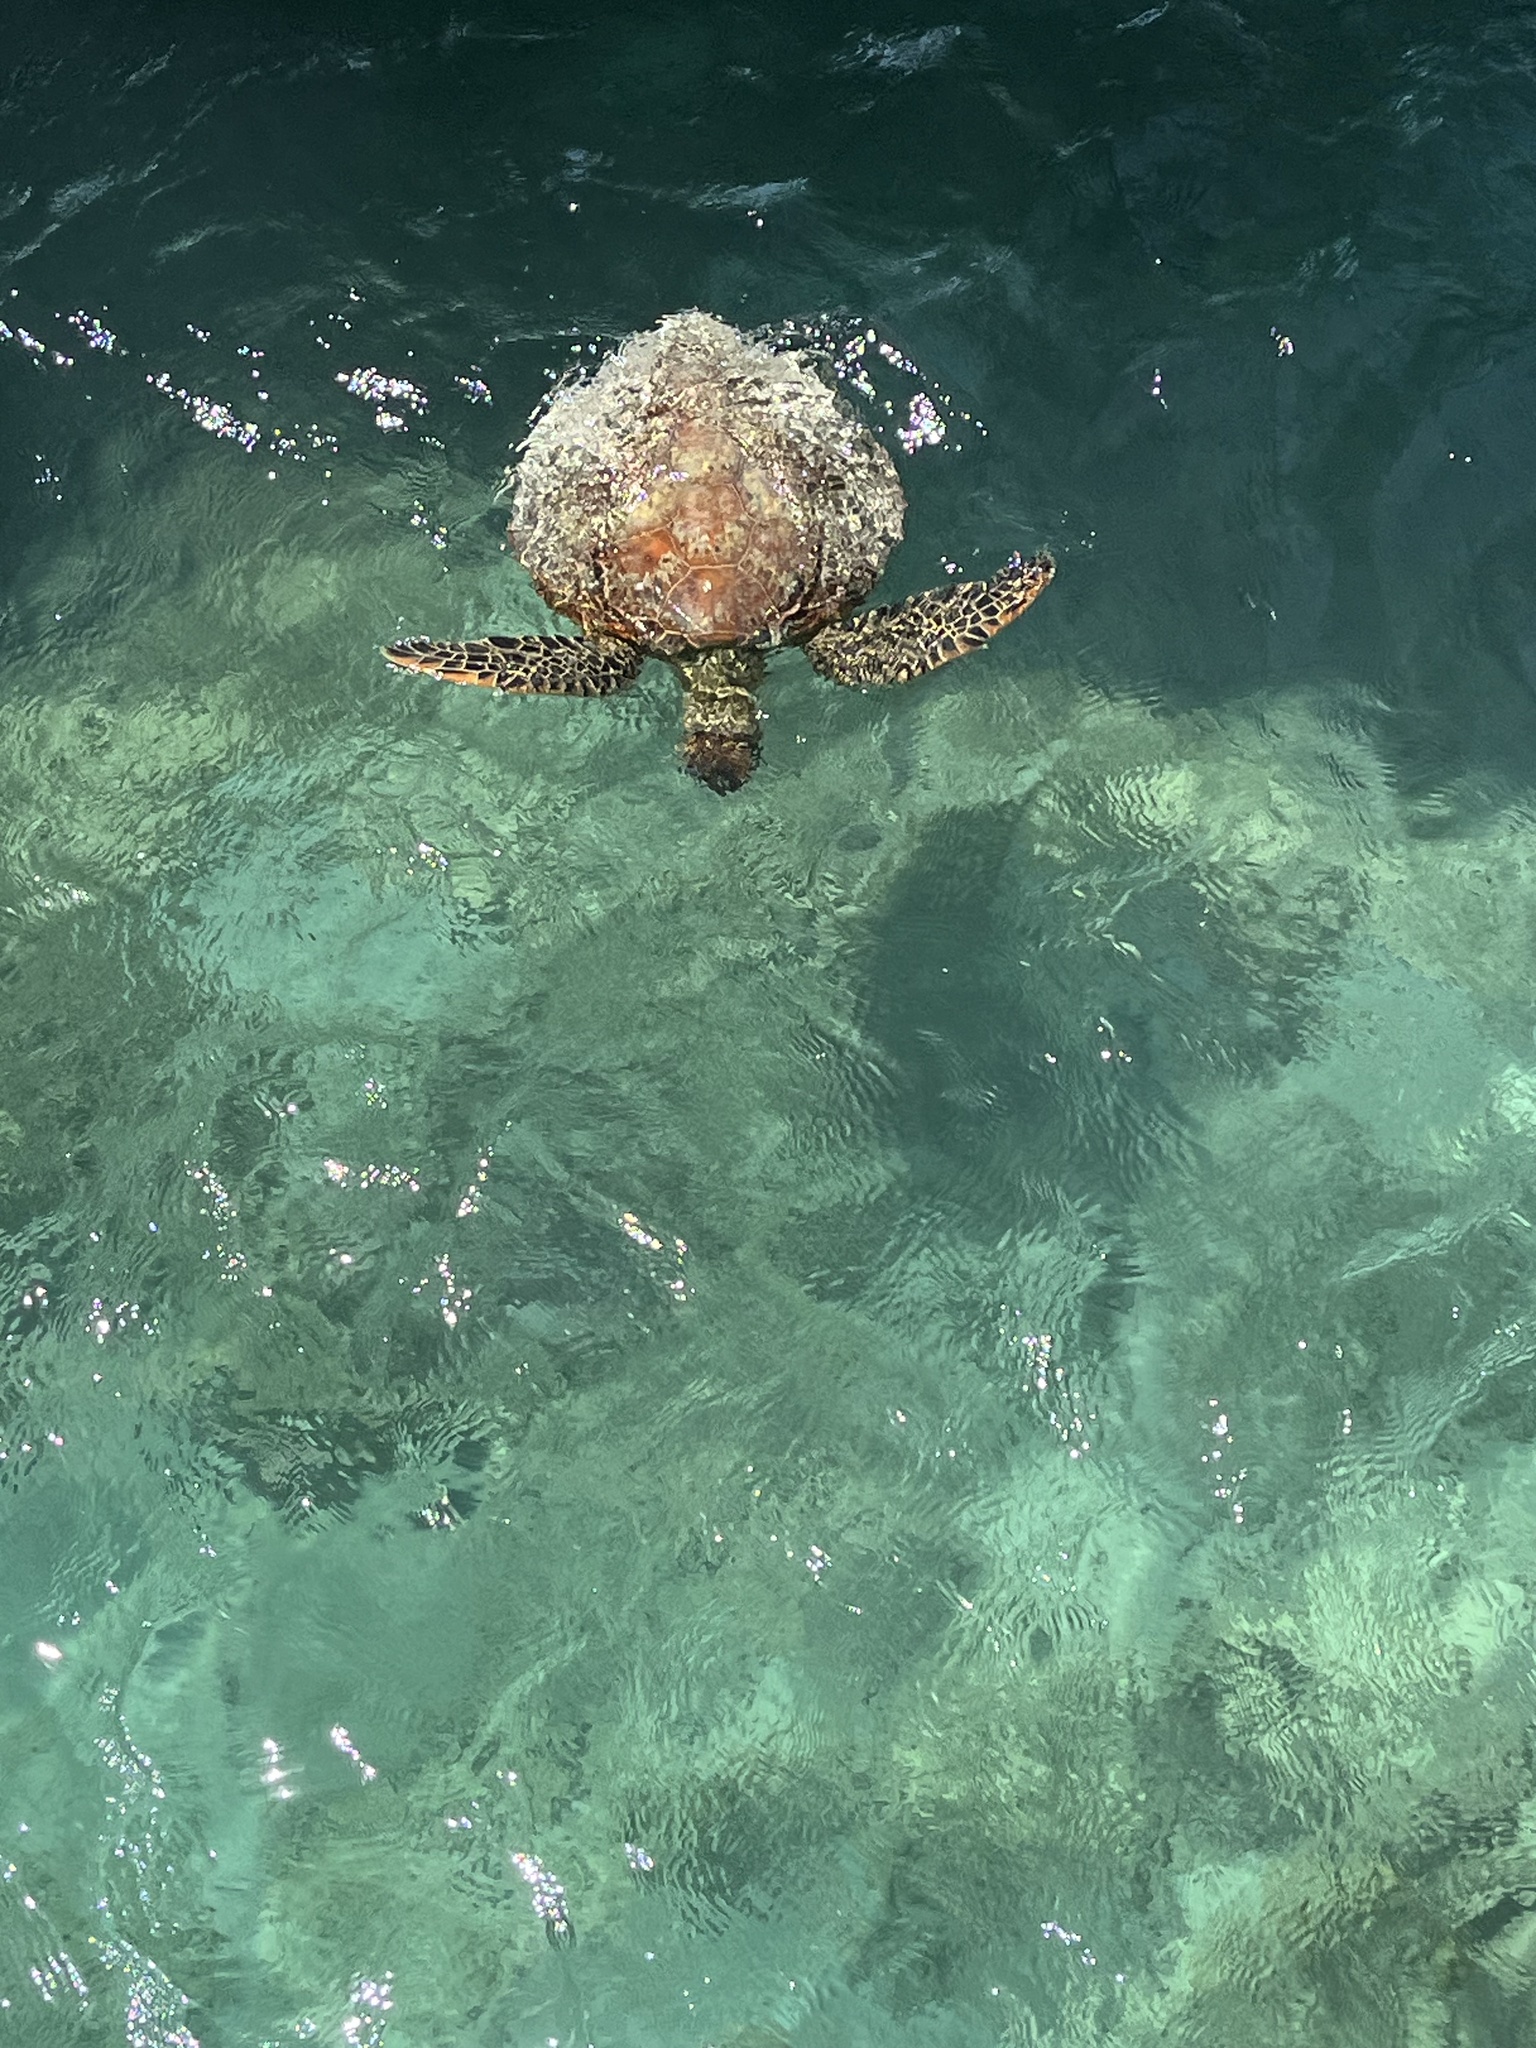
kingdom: Animalia
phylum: Chordata
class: Testudines
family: Cheloniidae
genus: Chelonia
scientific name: Chelonia mydas
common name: Green turtle
